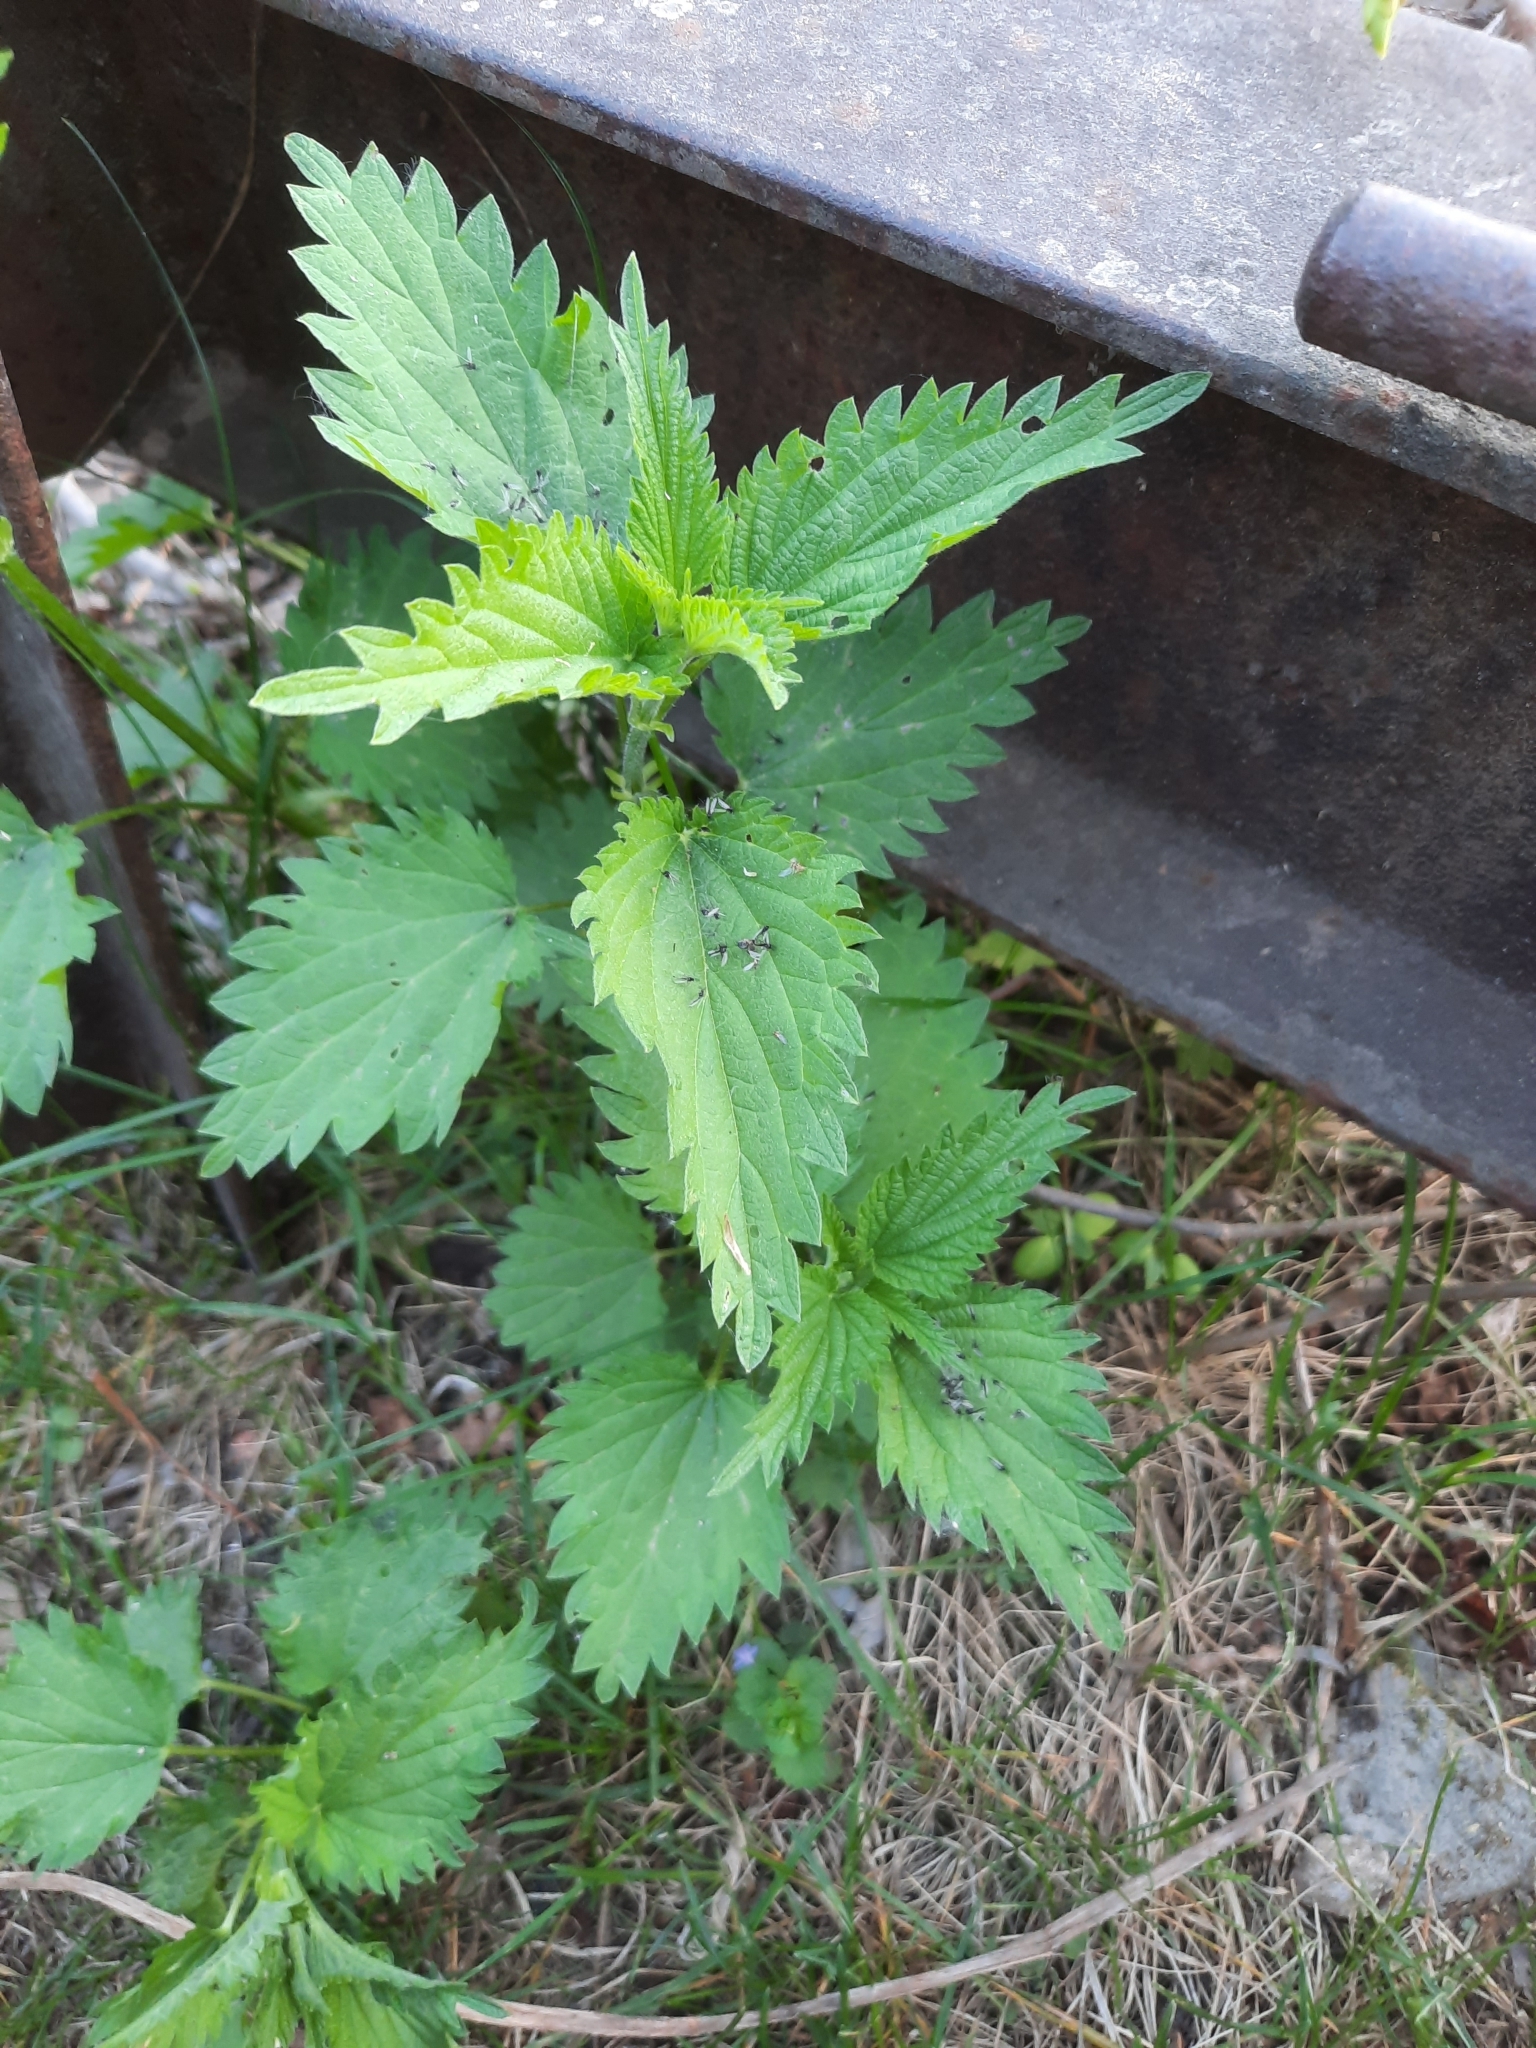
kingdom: Plantae
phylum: Tracheophyta
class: Magnoliopsida
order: Rosales
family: Urticaceae
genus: Urtica
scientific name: Urtica dioica
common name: Common nettle
